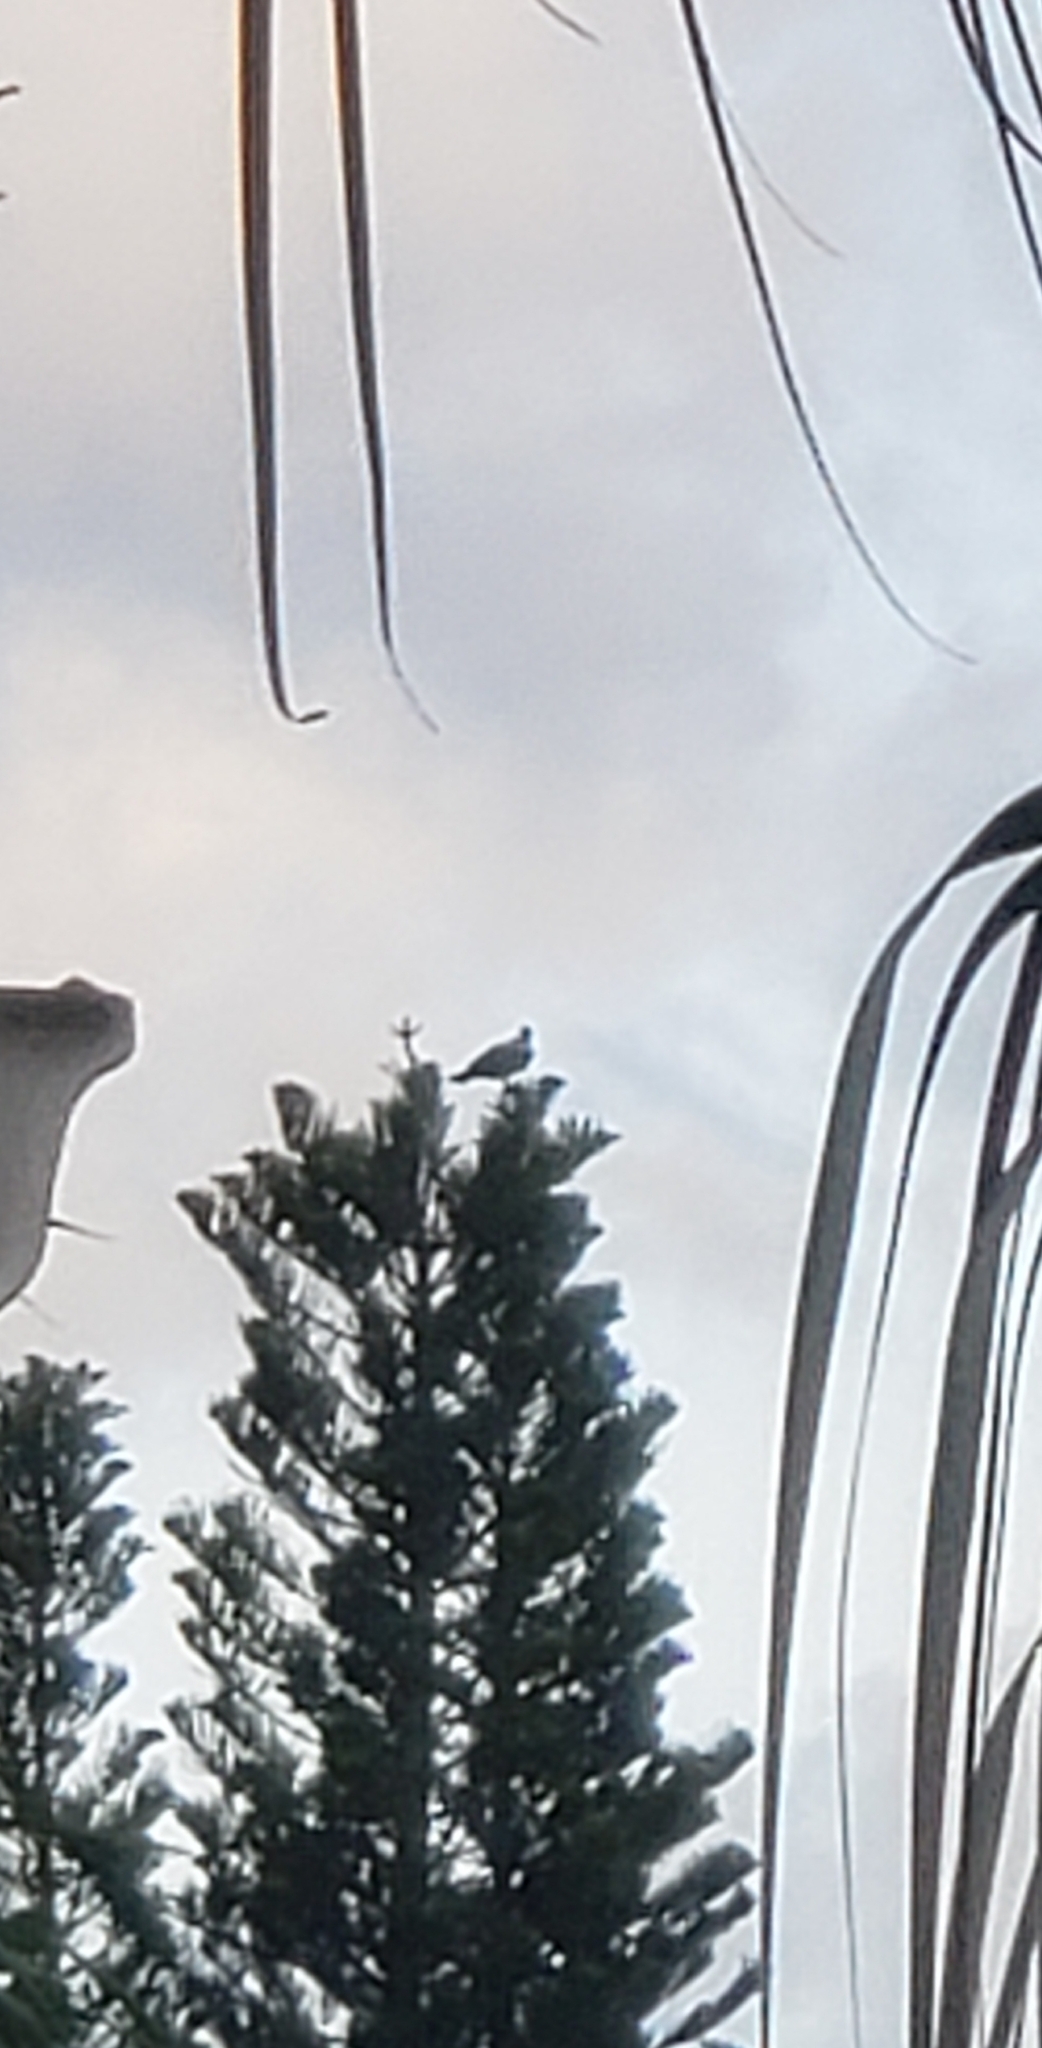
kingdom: Animalia
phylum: Chordata
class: Aves
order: Accipitriformes
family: Pandionidae
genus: Pandion
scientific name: Pandion haliaetus
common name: Osprey
